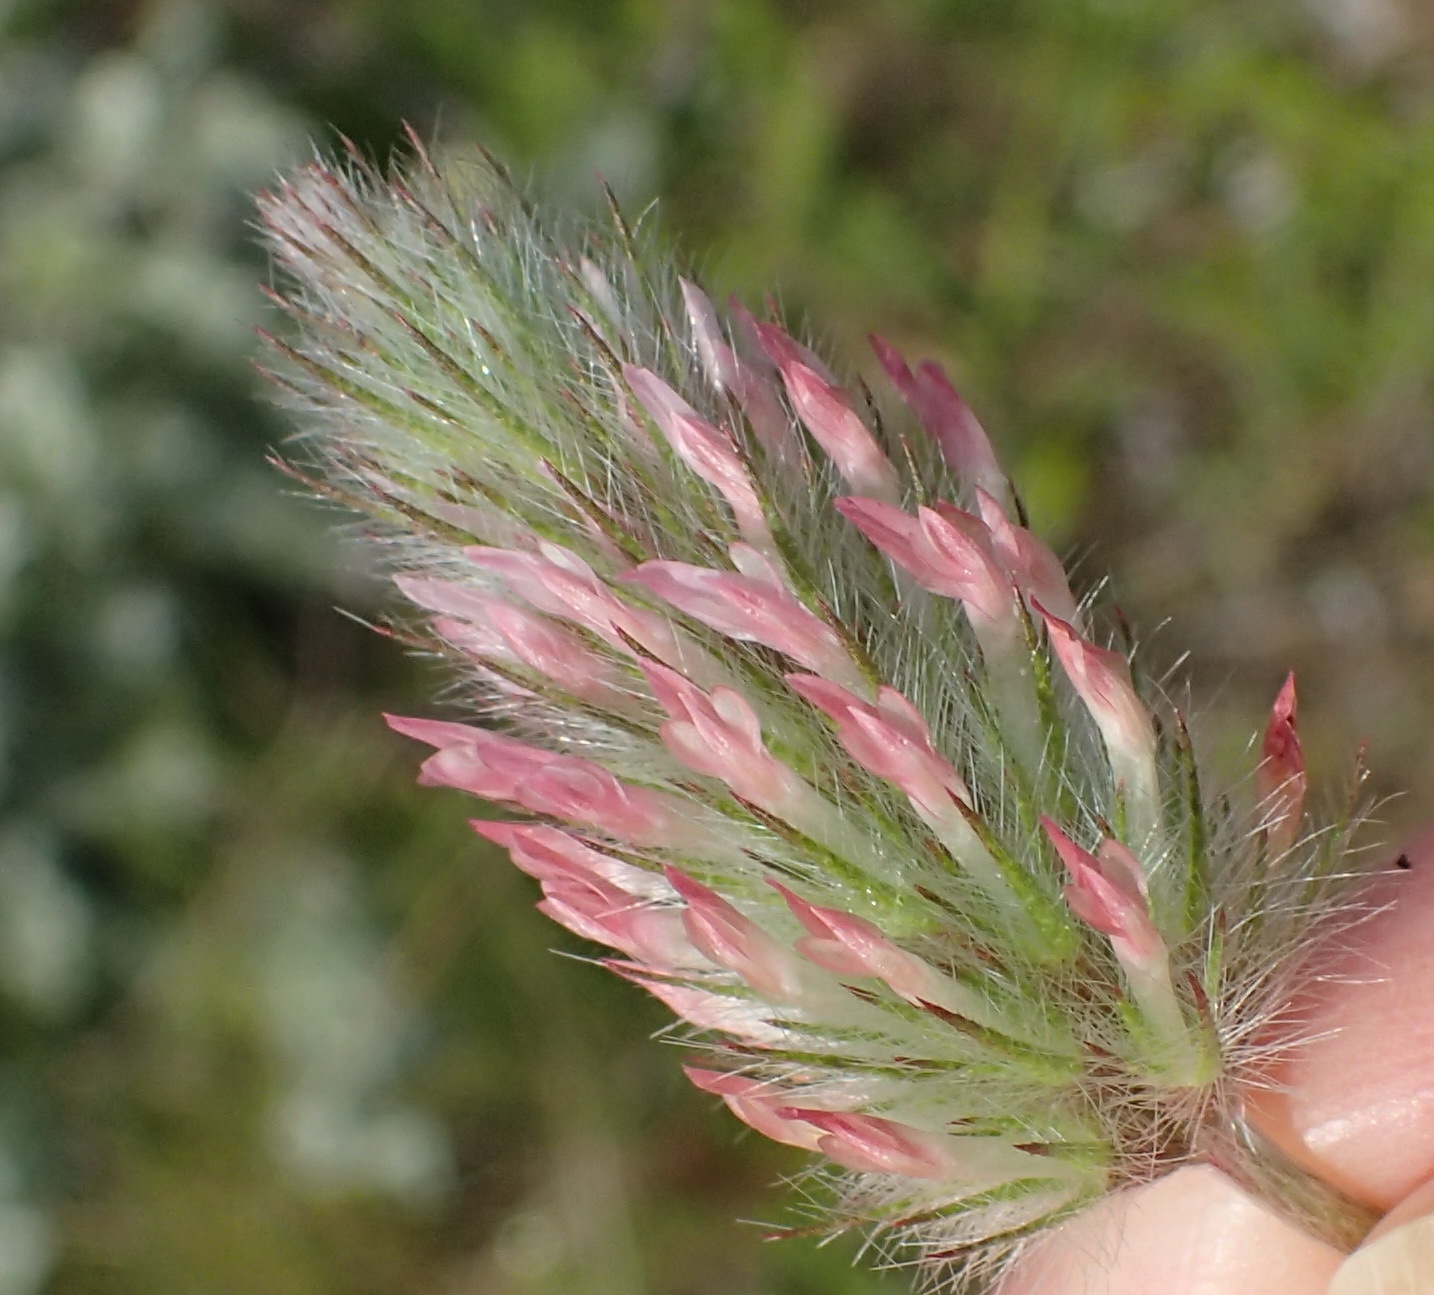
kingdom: Plantae
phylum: Tracheophyta
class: Magnoliopsida
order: Fabales
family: Fabaceae
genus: Trifolium
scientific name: Trifolium angustifolium
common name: Narrow clover
